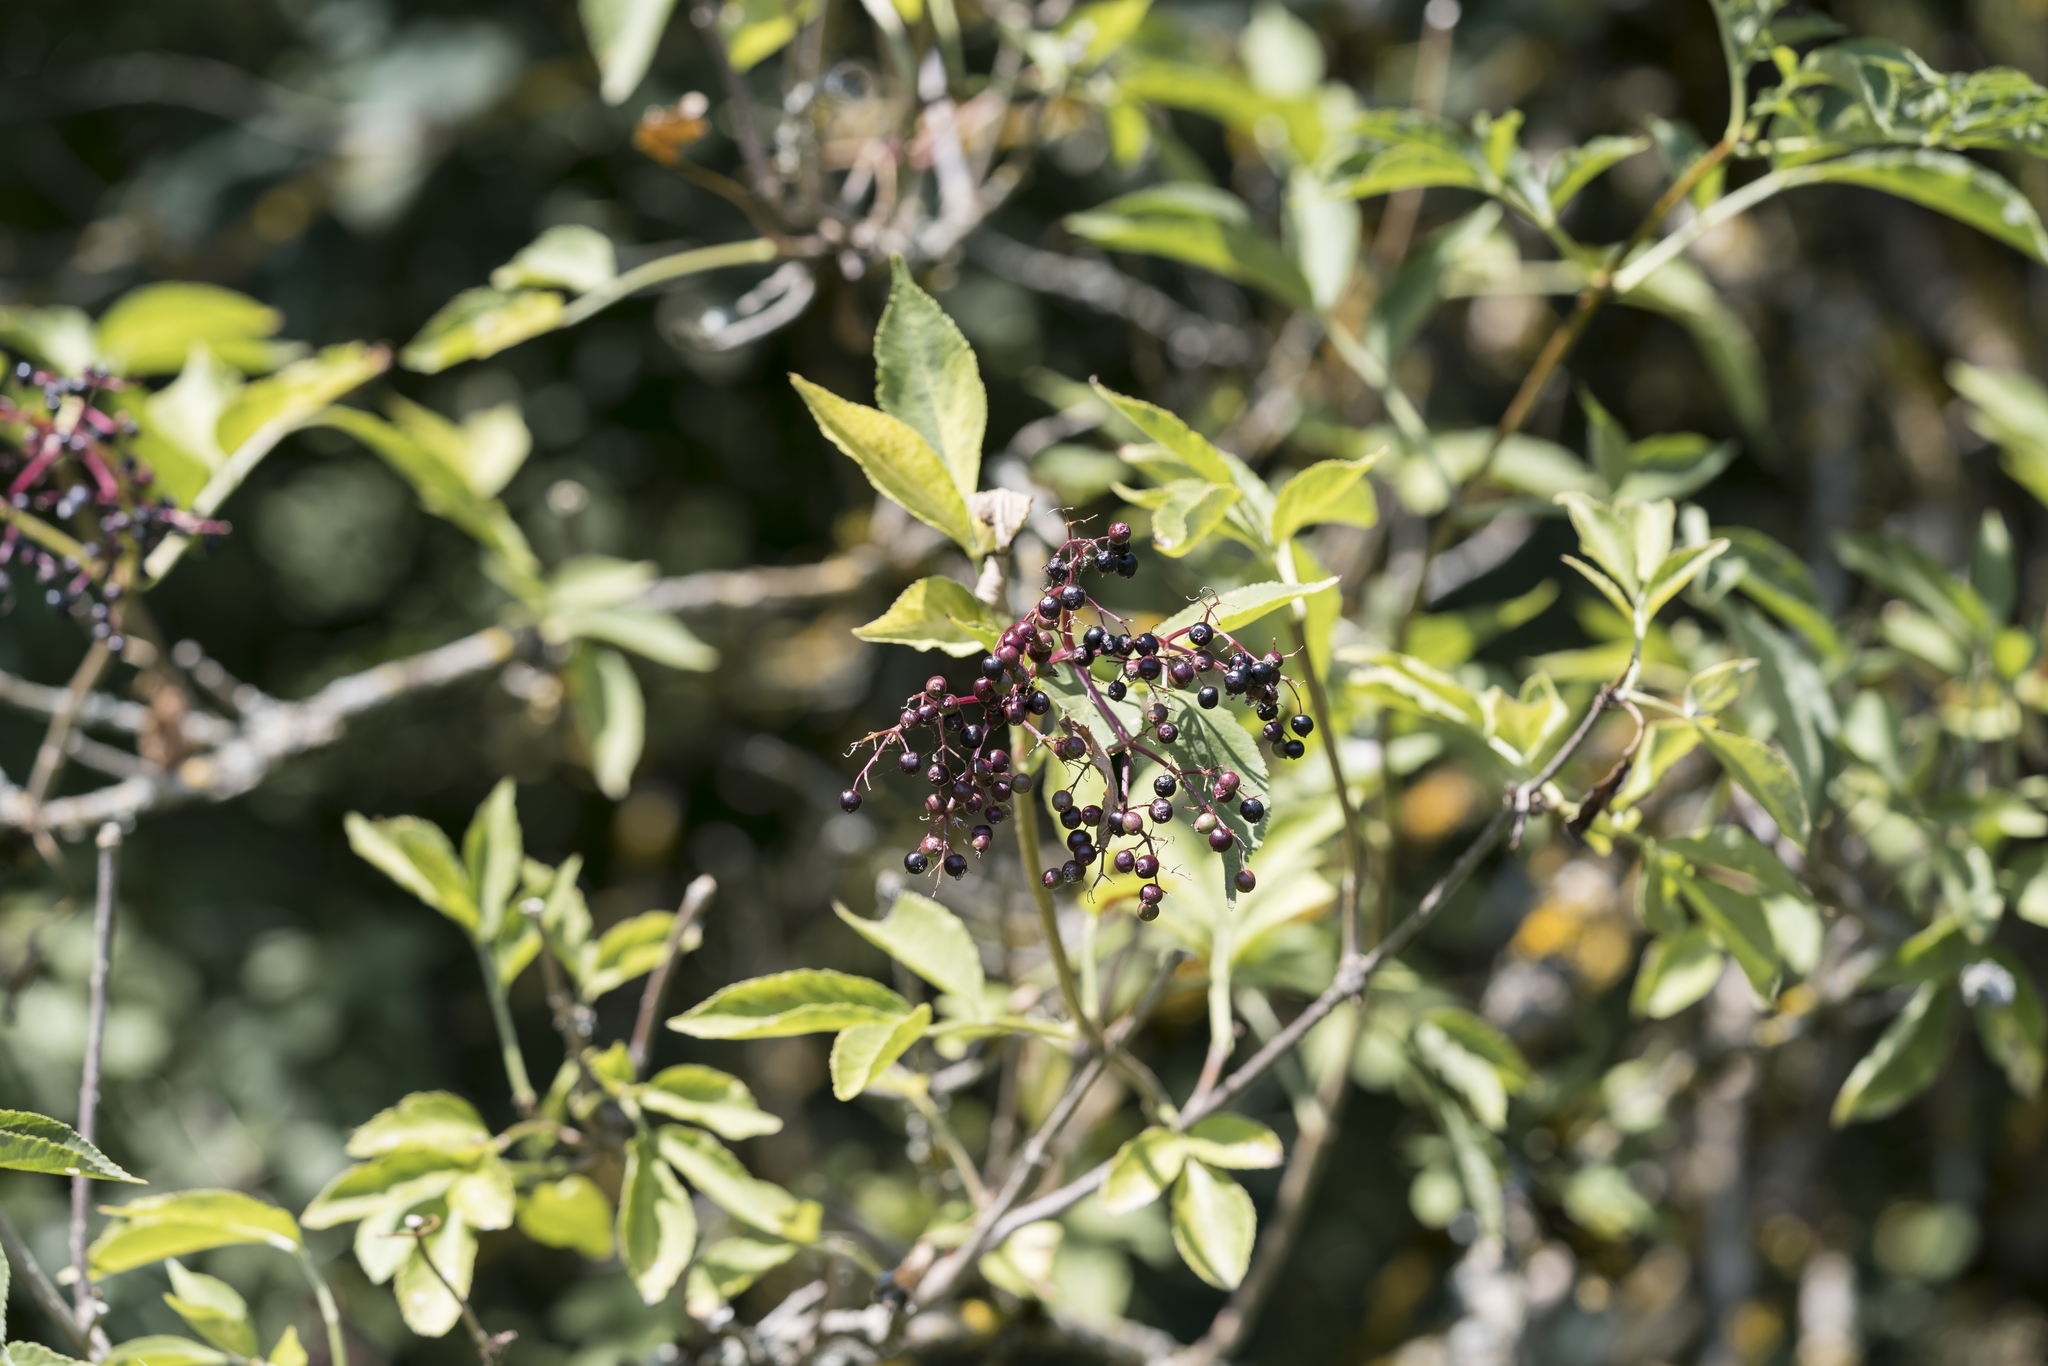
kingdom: Plantae
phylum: Tracheophyta
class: Magnoliopsida
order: Dipsacales
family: Viburnaceae
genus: Sambucus
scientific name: Sambucus nigra
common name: Elder
